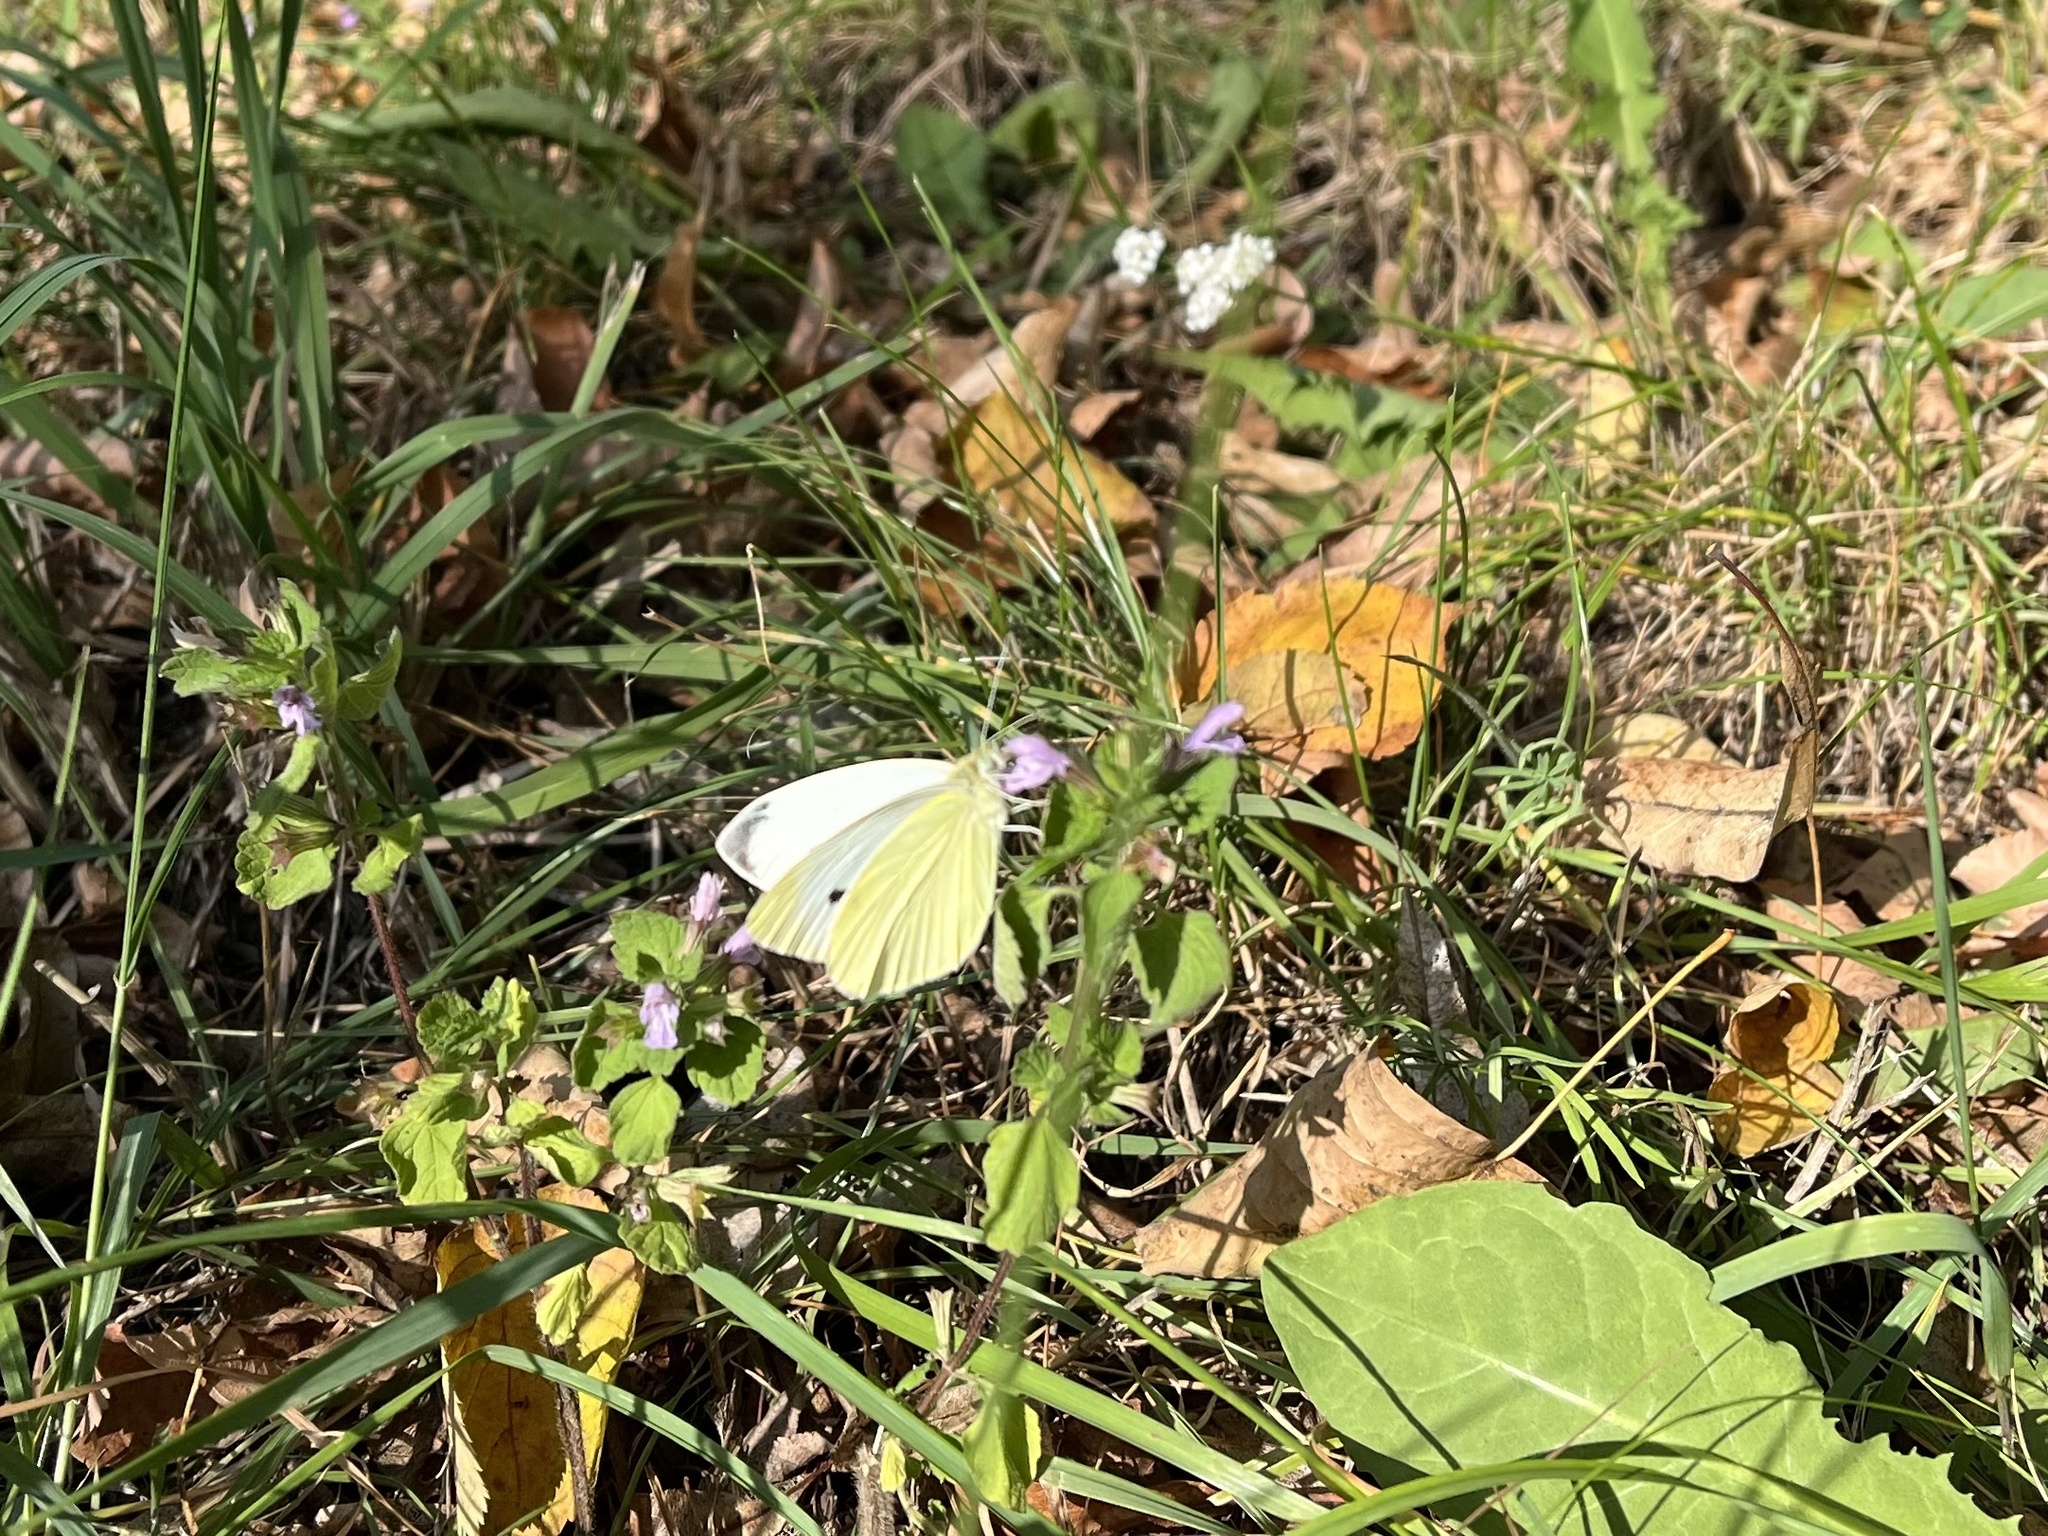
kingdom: Animalia
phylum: Arthropoda
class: Insecta
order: Lepidoptera
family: Pieridae
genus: Pieris
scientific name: Pieris rapae
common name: Small white
